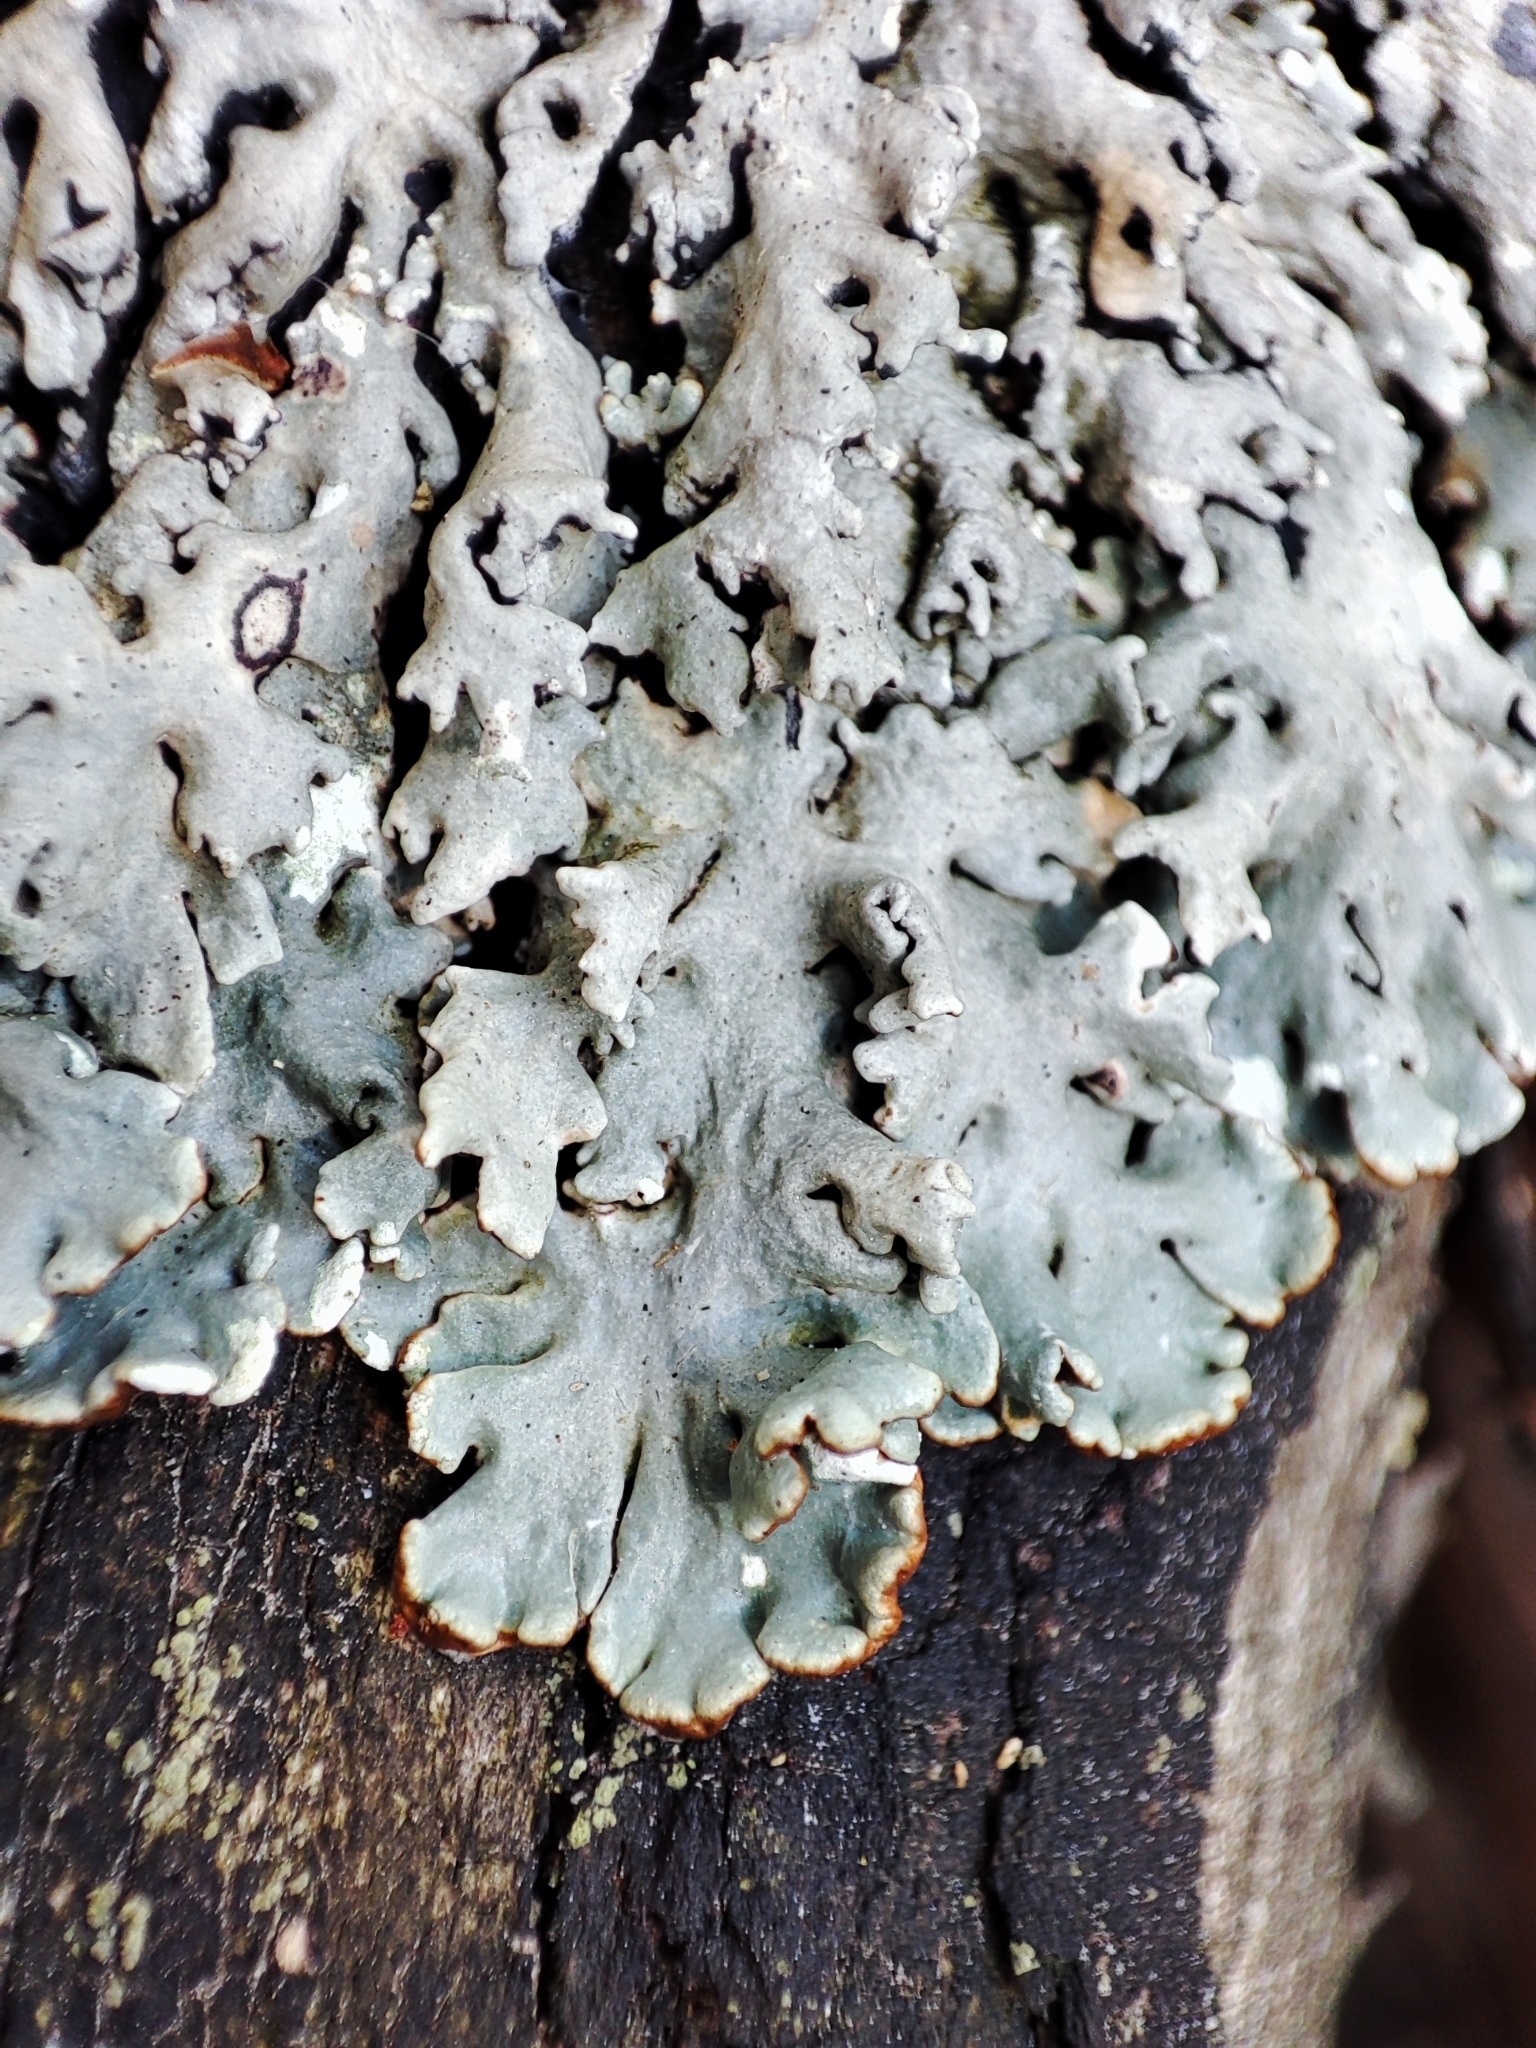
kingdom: Fungi
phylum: Ascomycota
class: Lecanoromycetes
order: Lecanorales
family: Parmeliaceae
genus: Hypogymnia
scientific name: Hypogymnia physodes
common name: Dark crottle
